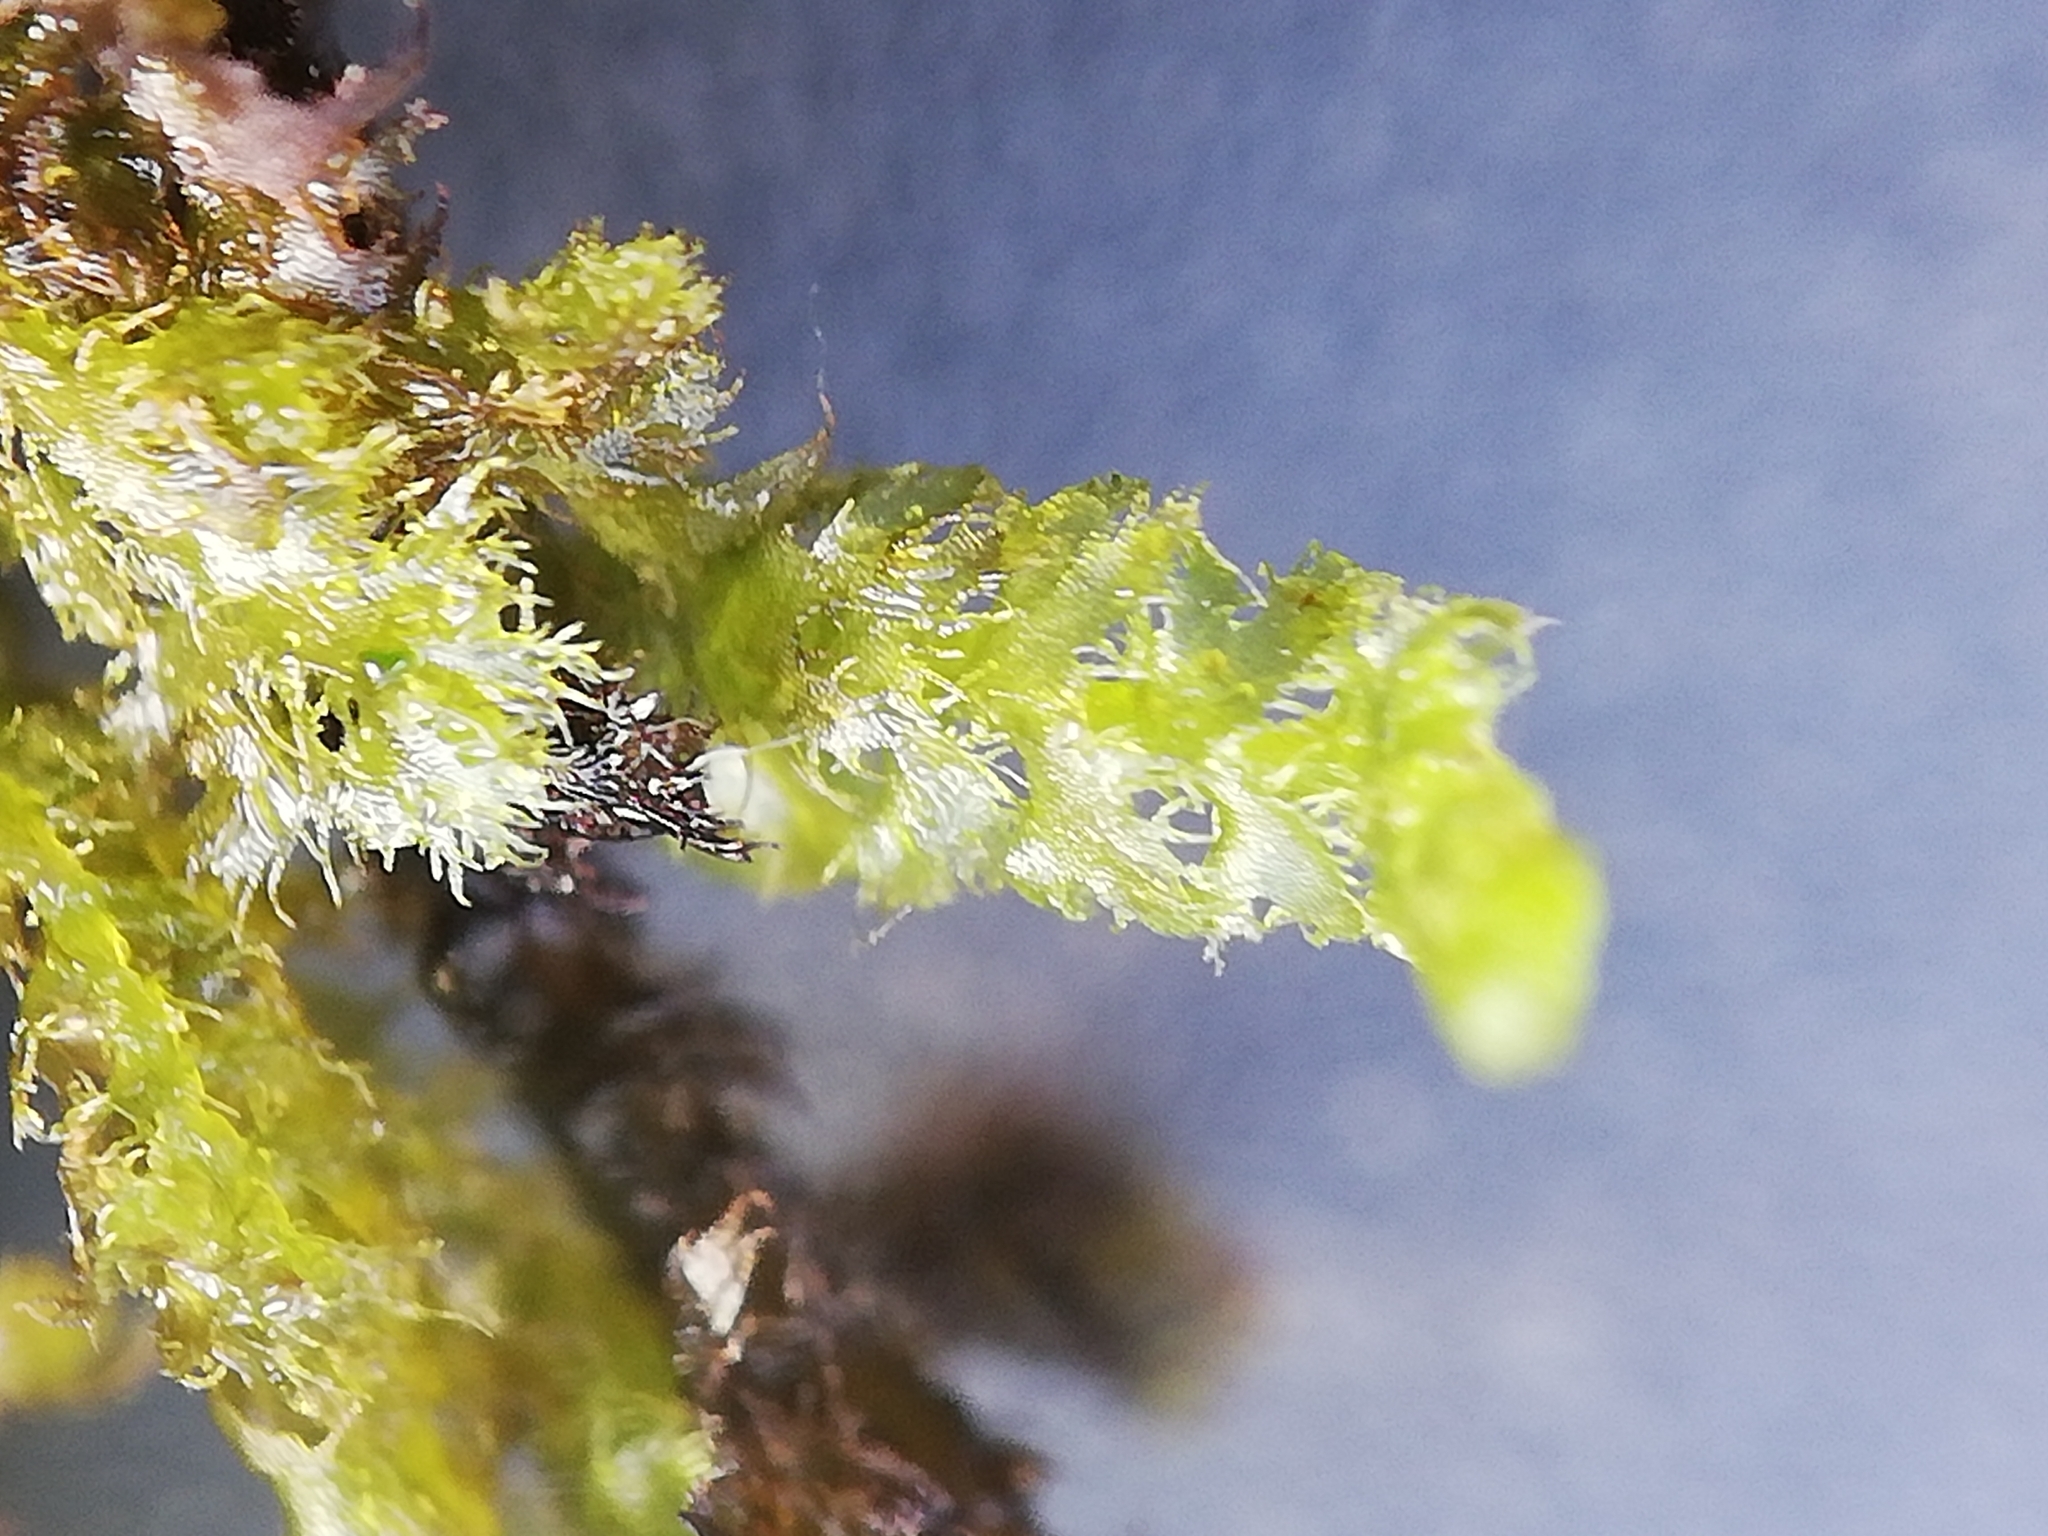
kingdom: Plantae
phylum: Marchantiophyta
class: Jungermanniopsida
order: Ptilidiales
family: Ptilidiaceae
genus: Ptilidium
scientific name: Ptilidium ciliare
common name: Ciliate fringewort
